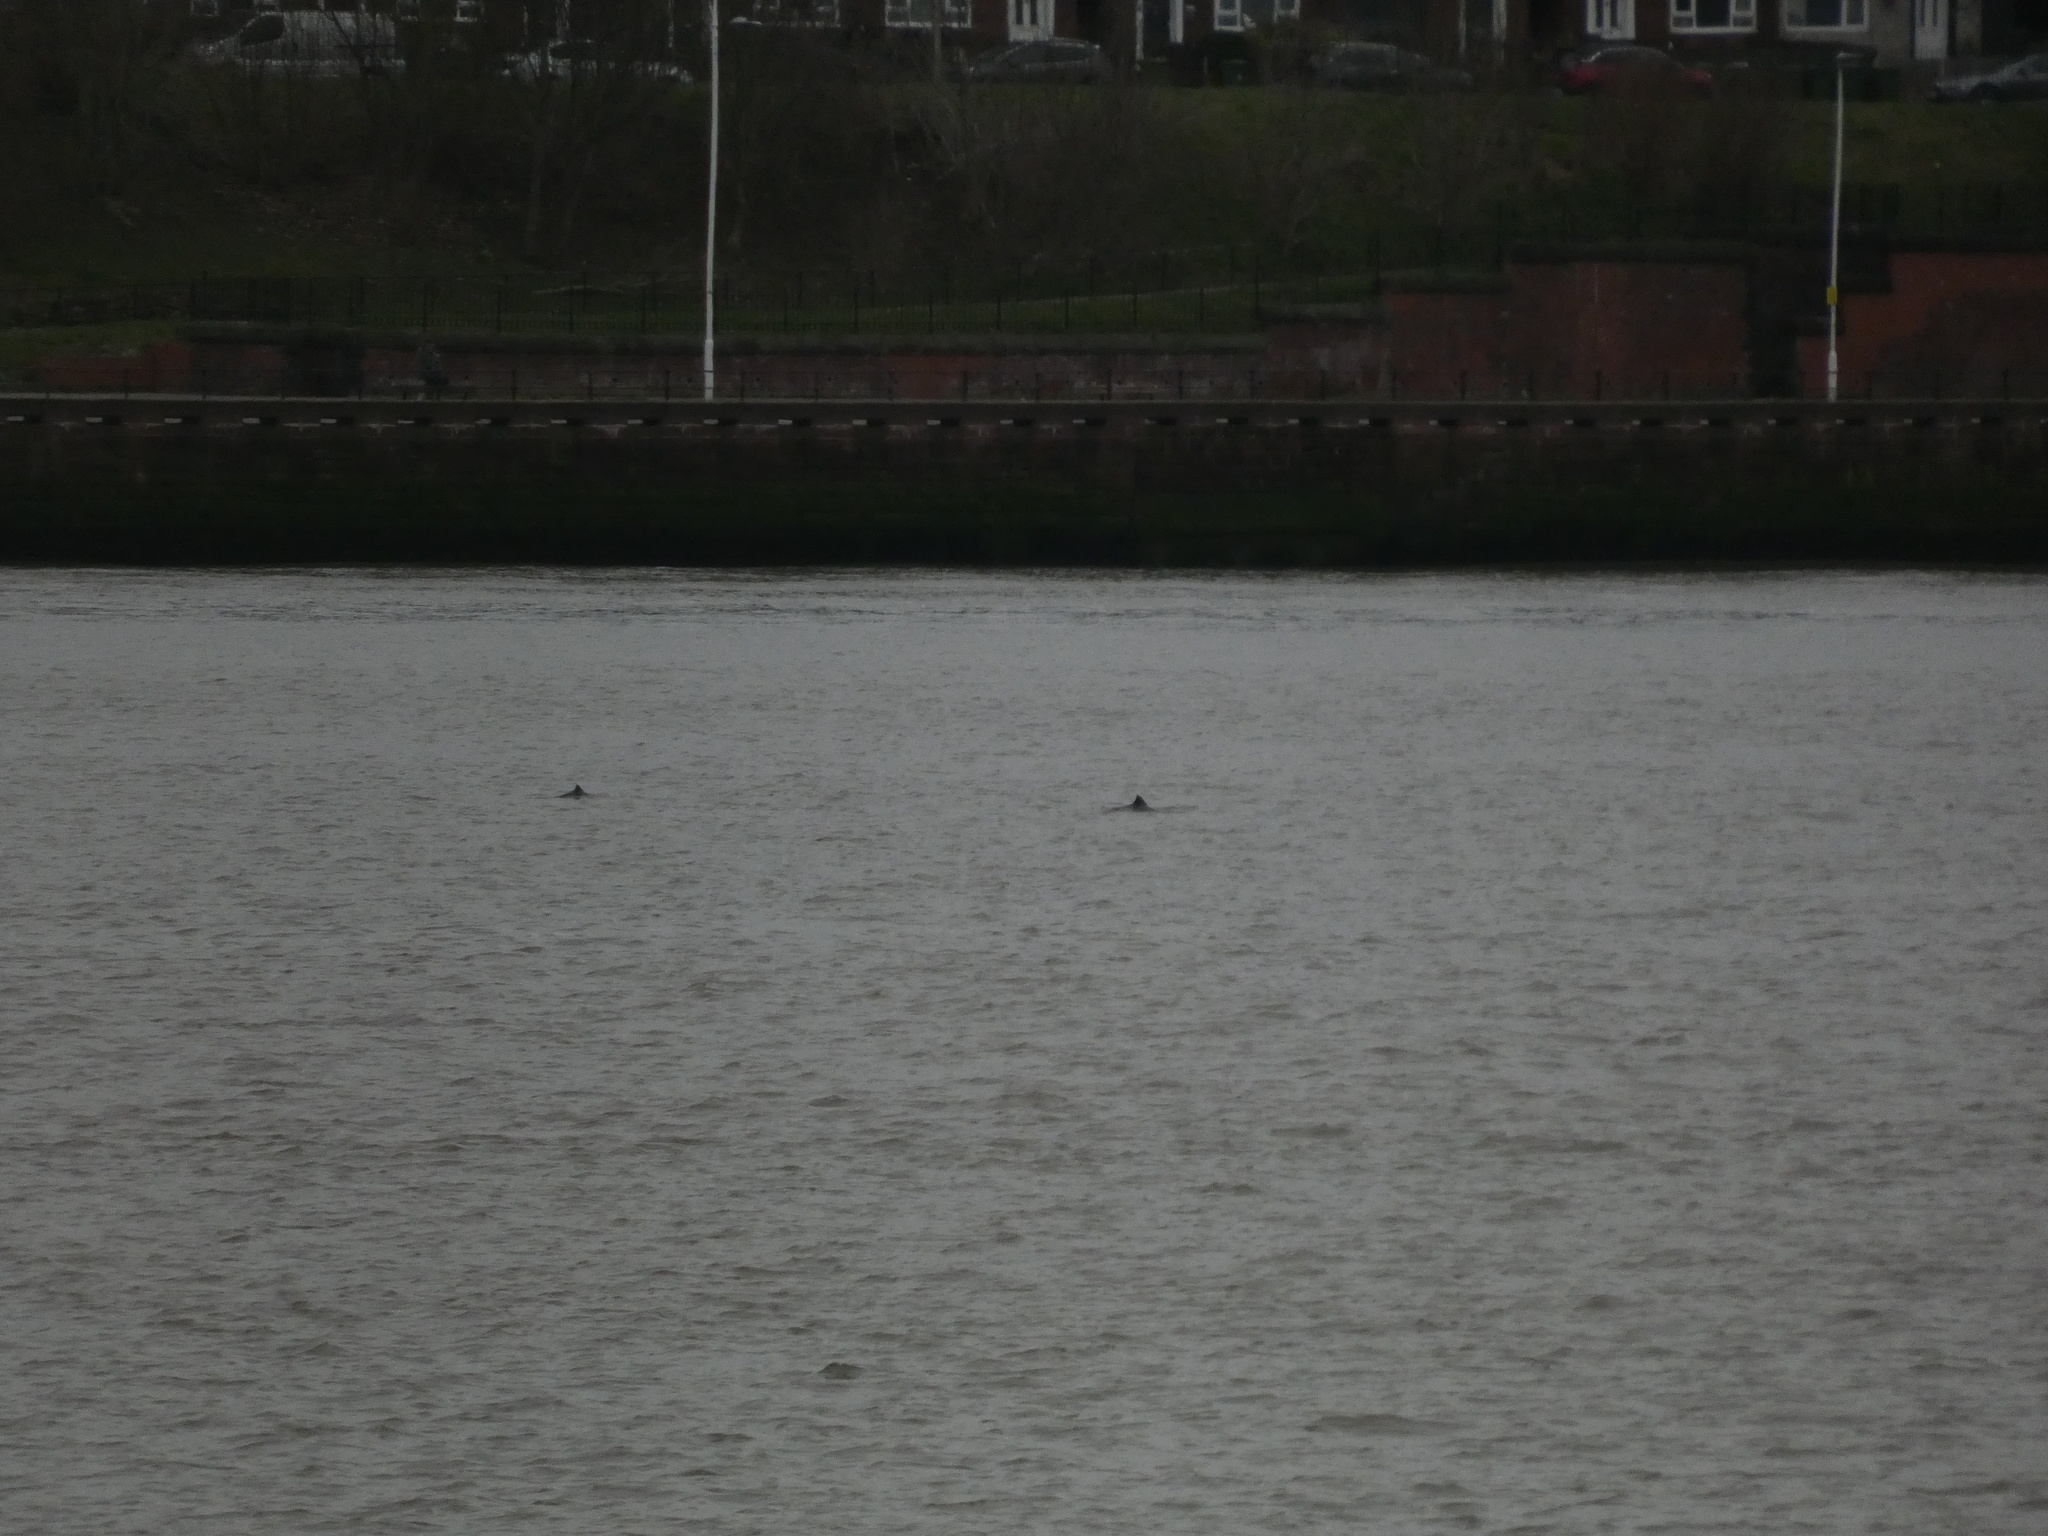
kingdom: Animalia
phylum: Chordata
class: Mammalia
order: Cetacea
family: Phocoenidae
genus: Phocoena
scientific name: Phocoena phocoena
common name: Harbor porpoise
